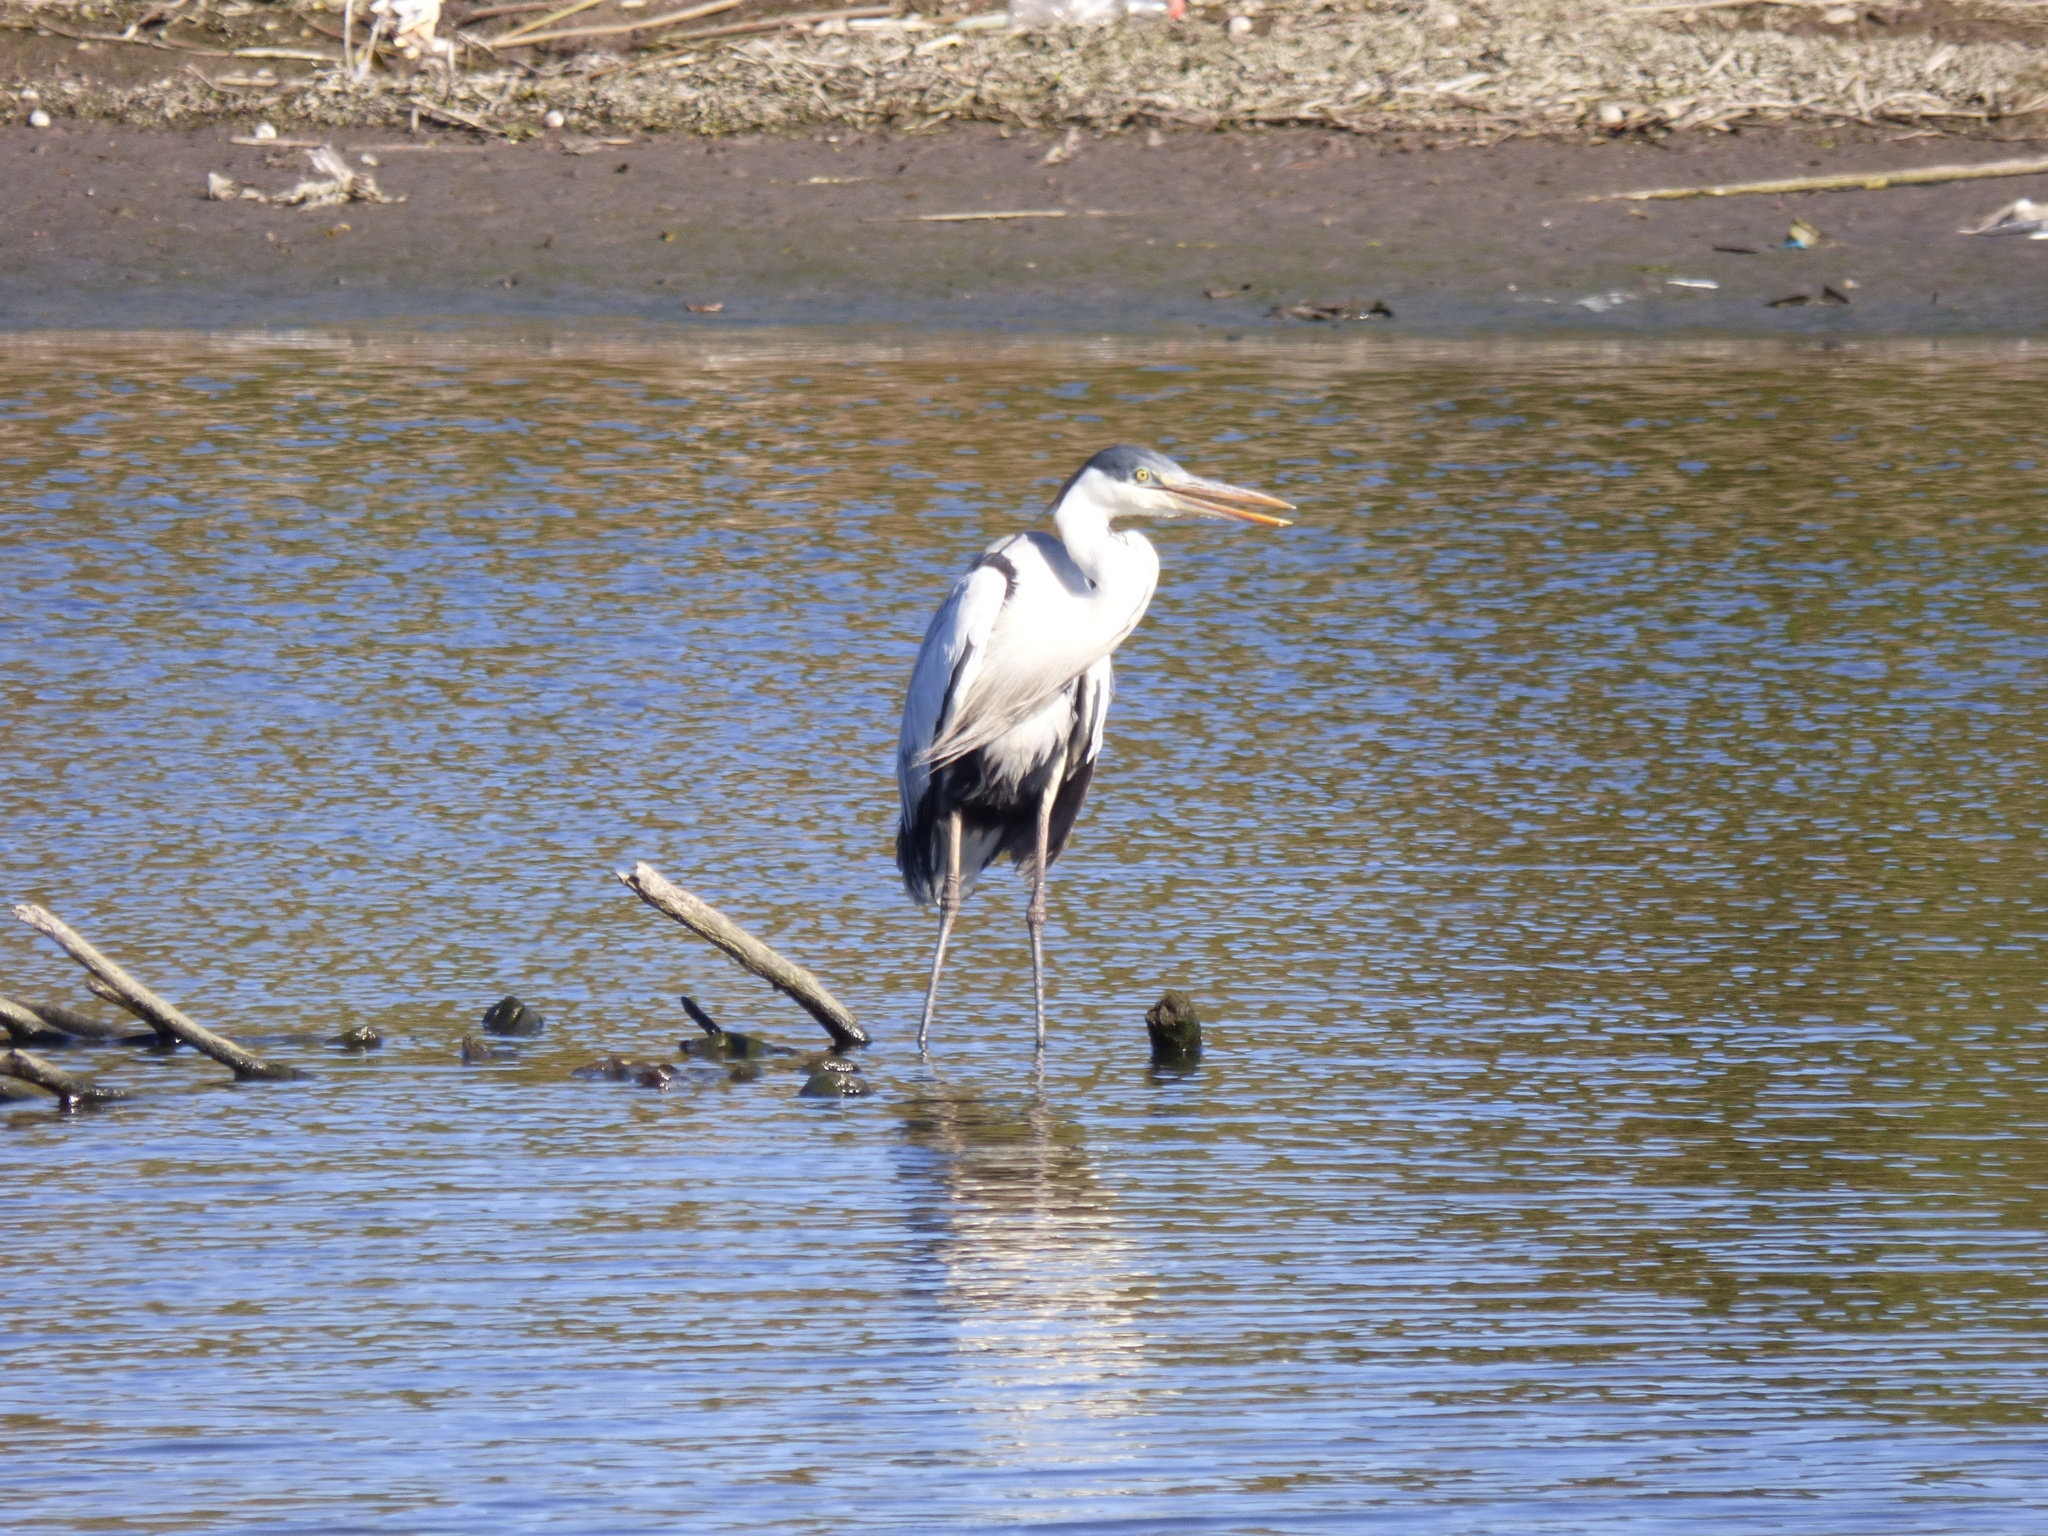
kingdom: Animalia
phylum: Chordata
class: Aves
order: Pelecaniformes
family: Ardeidae
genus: Ardea
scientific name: Ardea cocoi
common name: Cocoi heron
